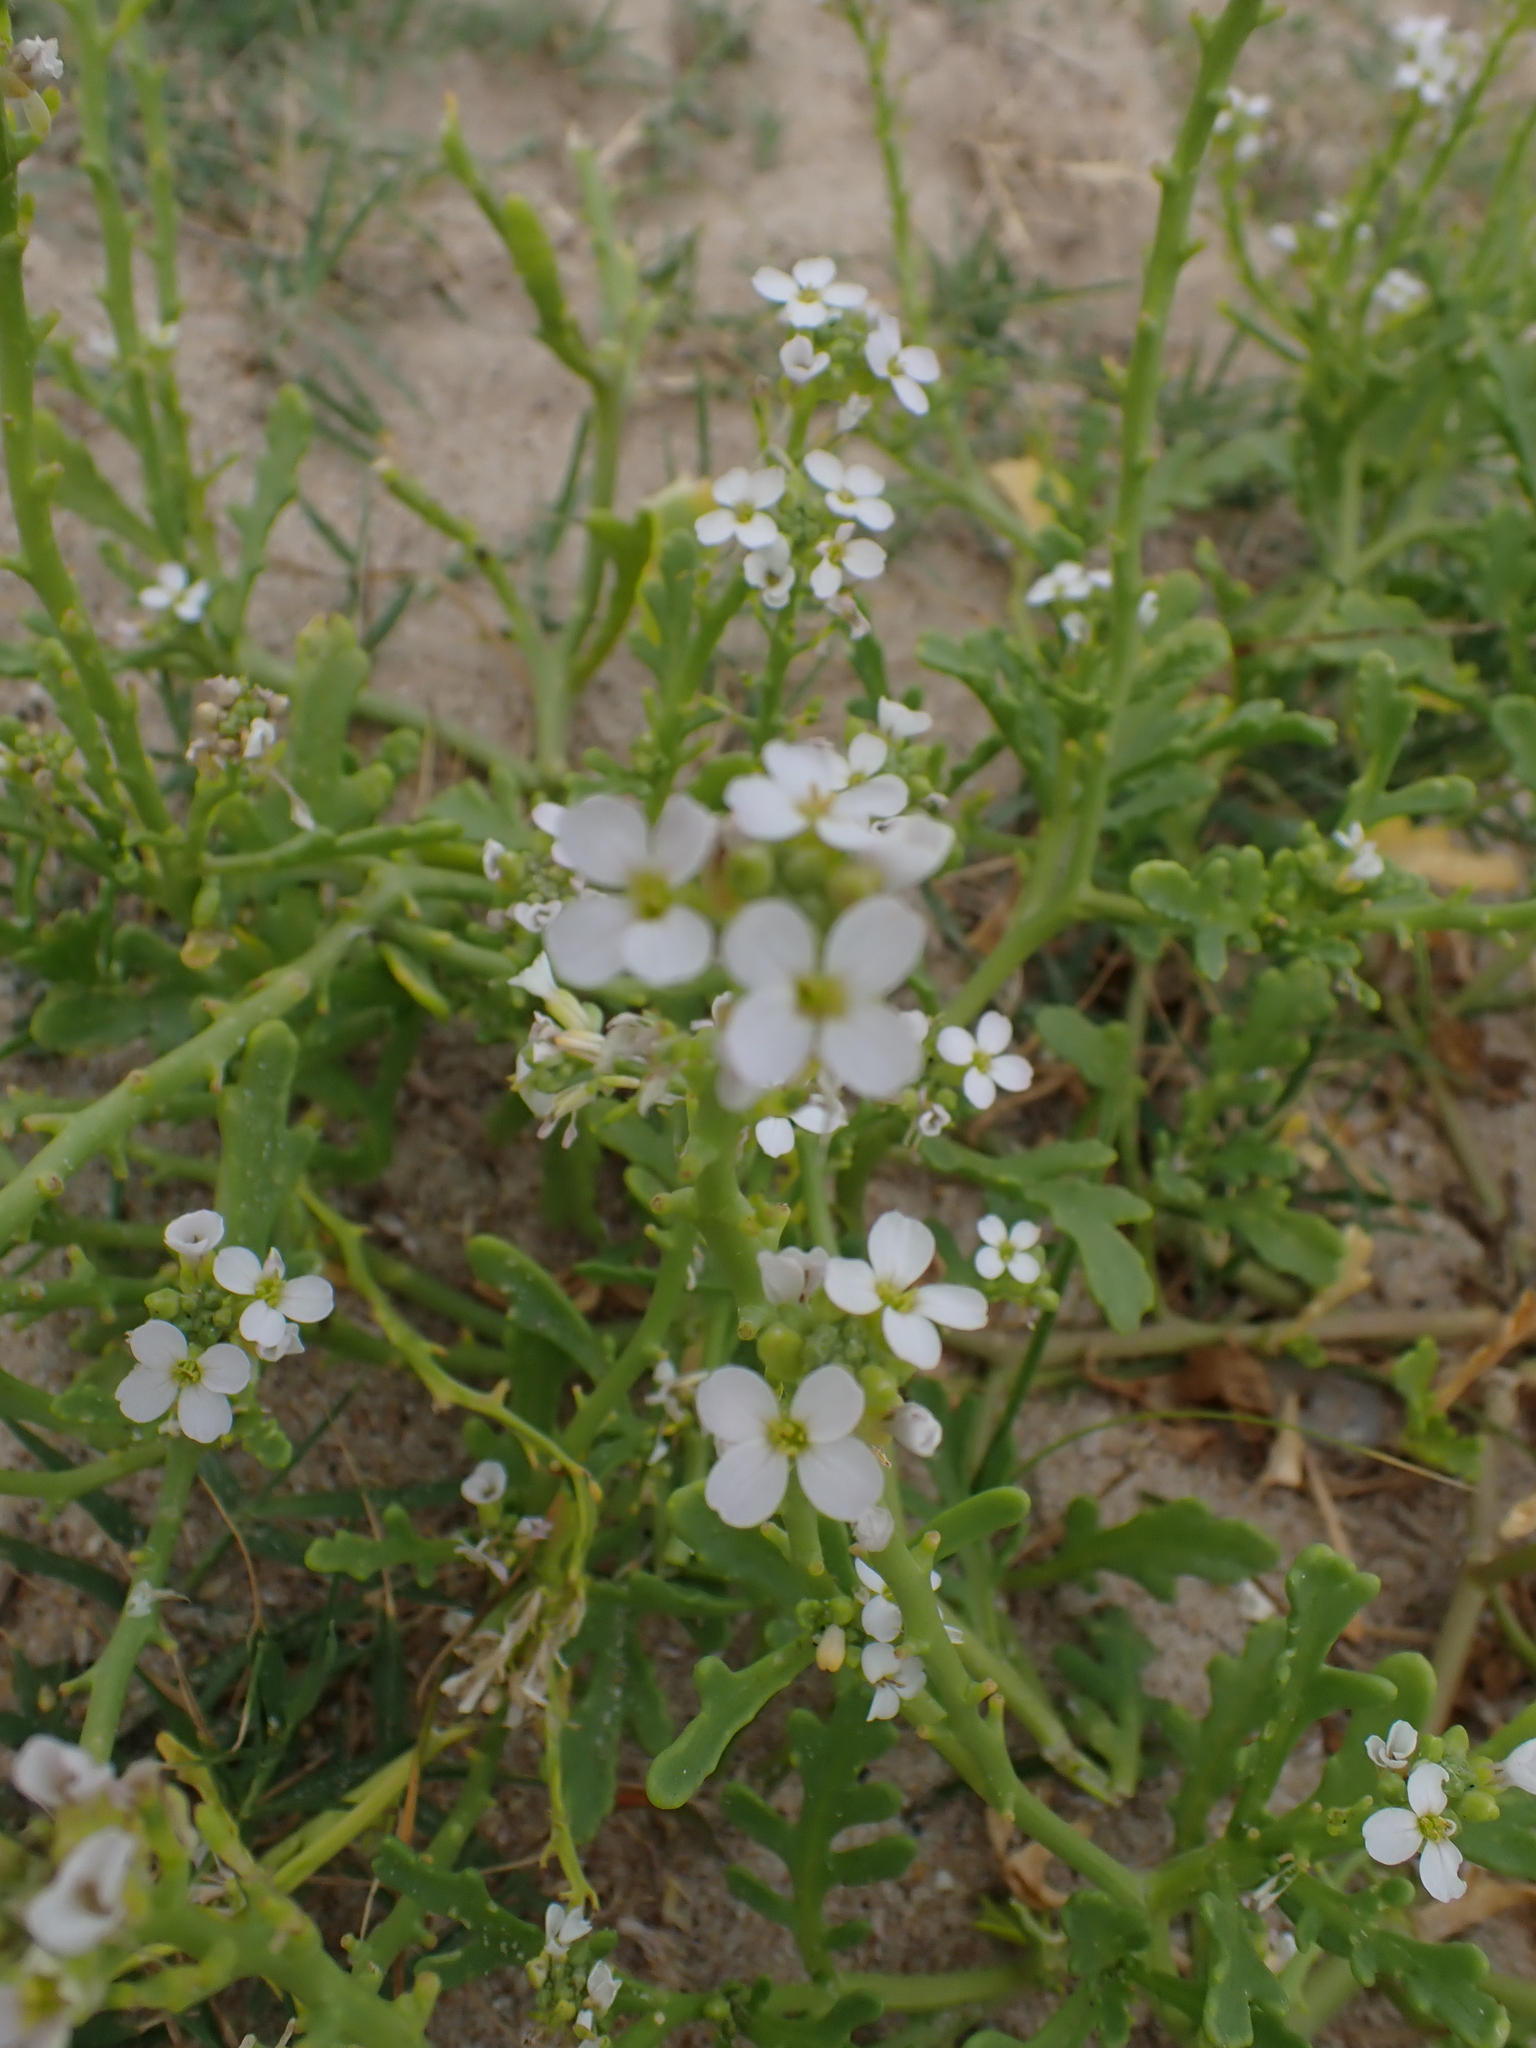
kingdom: Plantae
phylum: Tracheophyta
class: Magnoliopsida
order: Brassicales
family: Brassicaceae
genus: Cakile
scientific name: Cakile maritima
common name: Sea rocket
